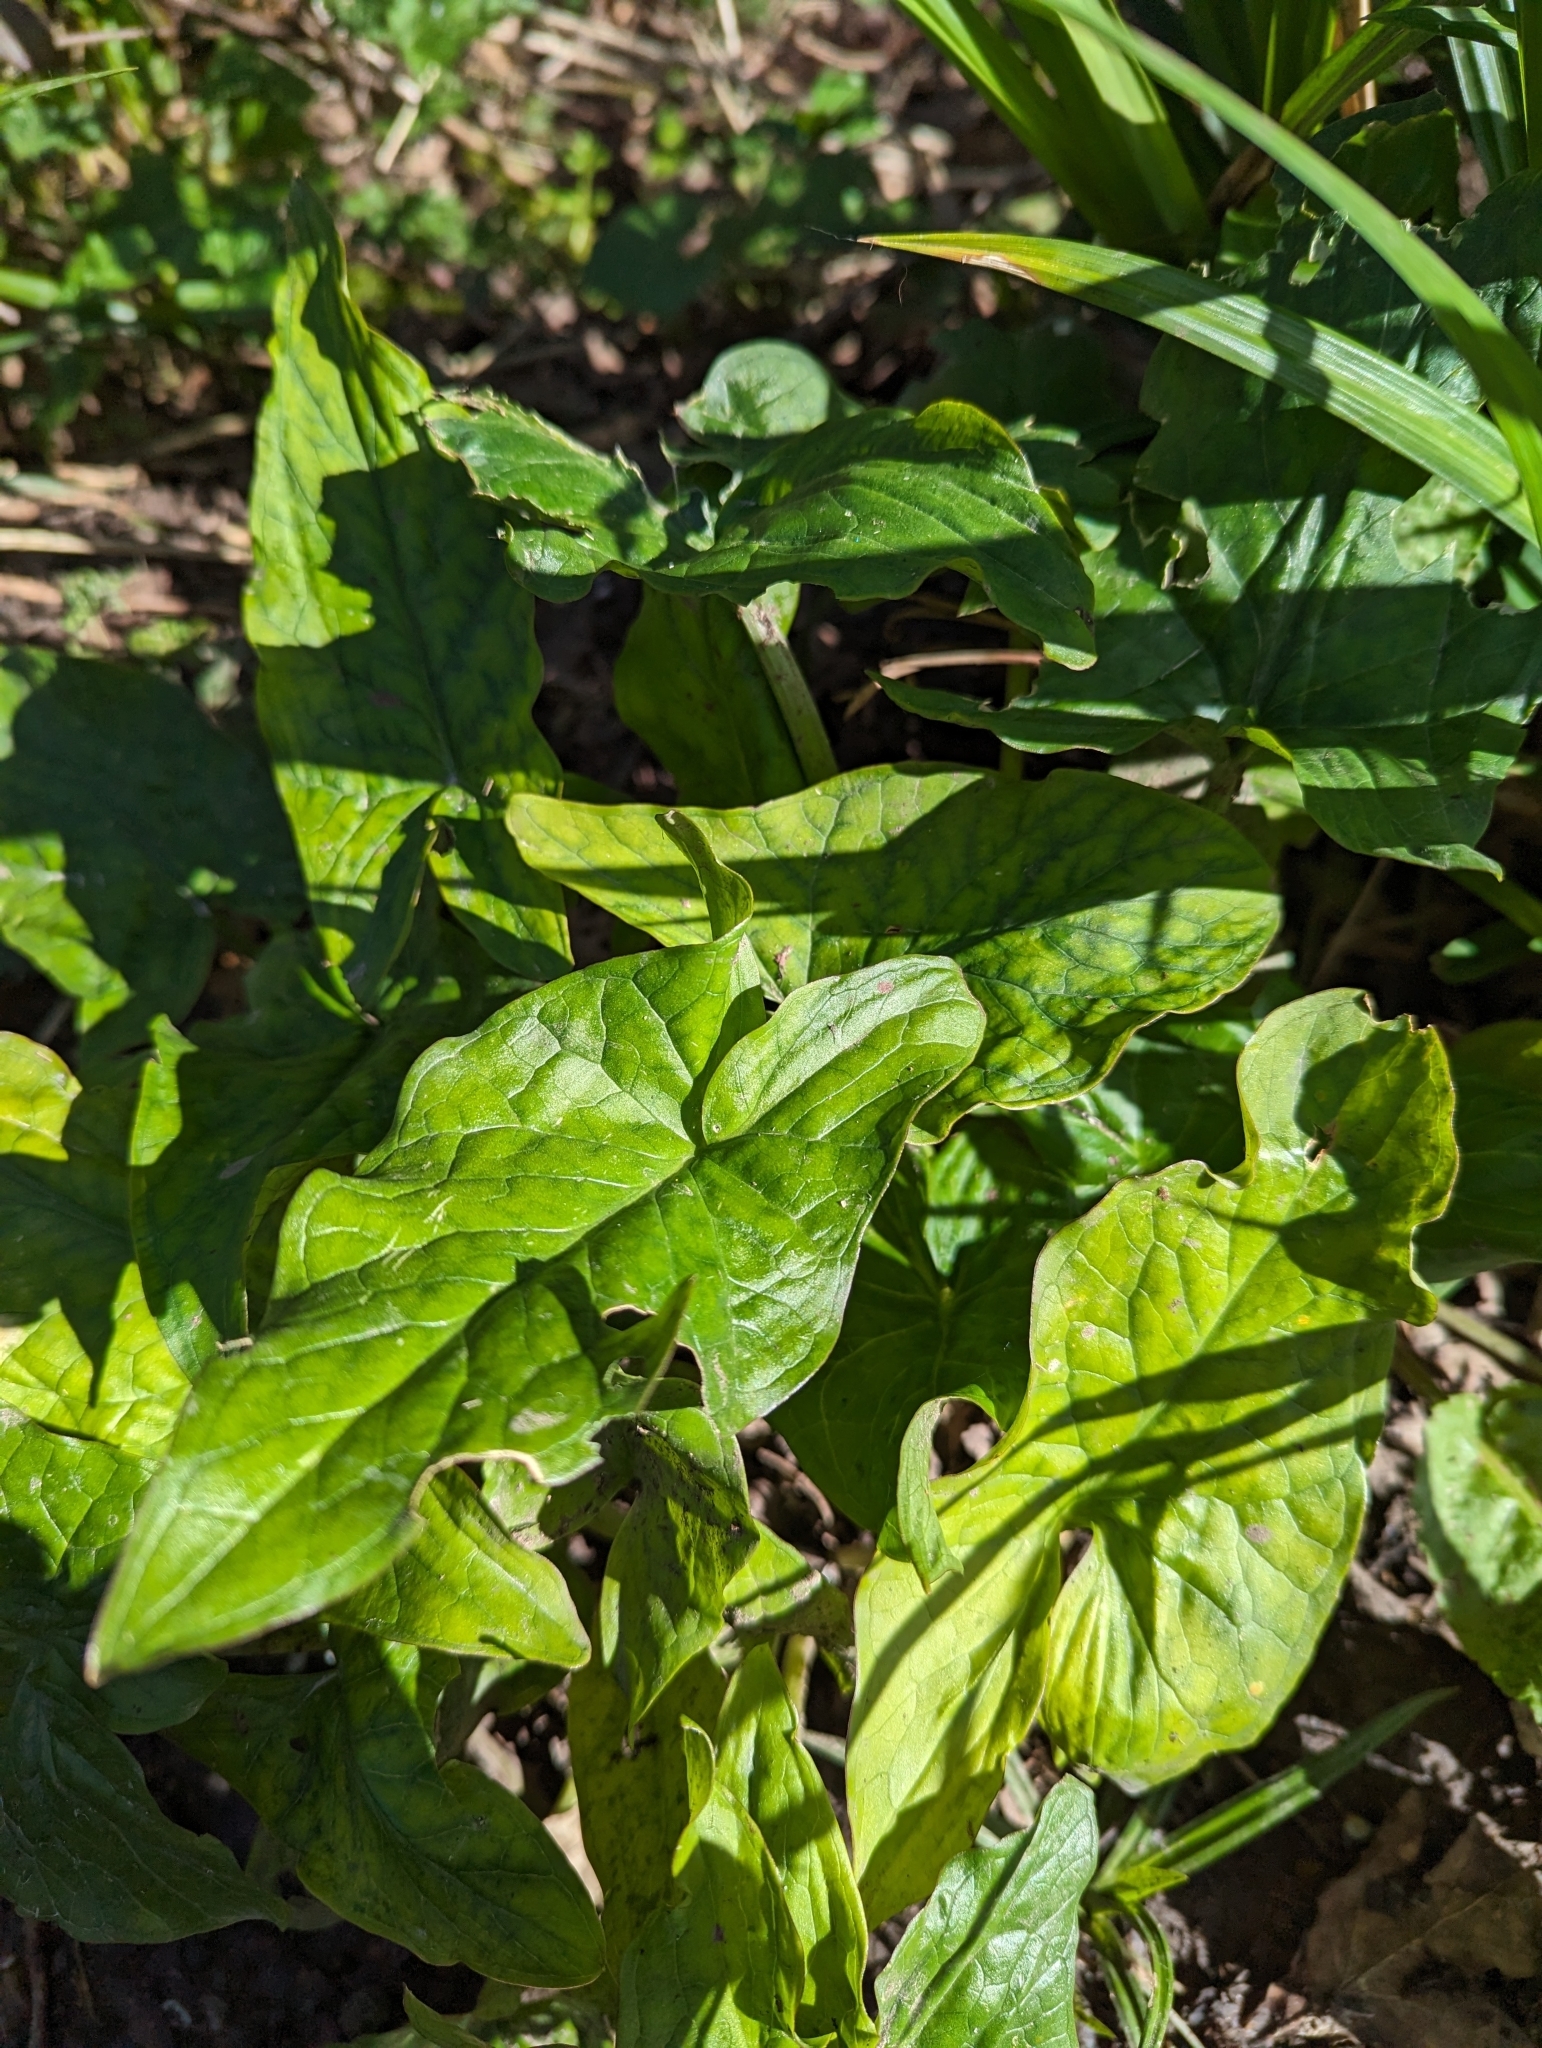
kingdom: Plantae
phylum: Tracheophyta
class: Liliopsida
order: Alismatales
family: Araceae
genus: Arum
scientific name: Arum maculatum
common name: Lords-and-ladies
